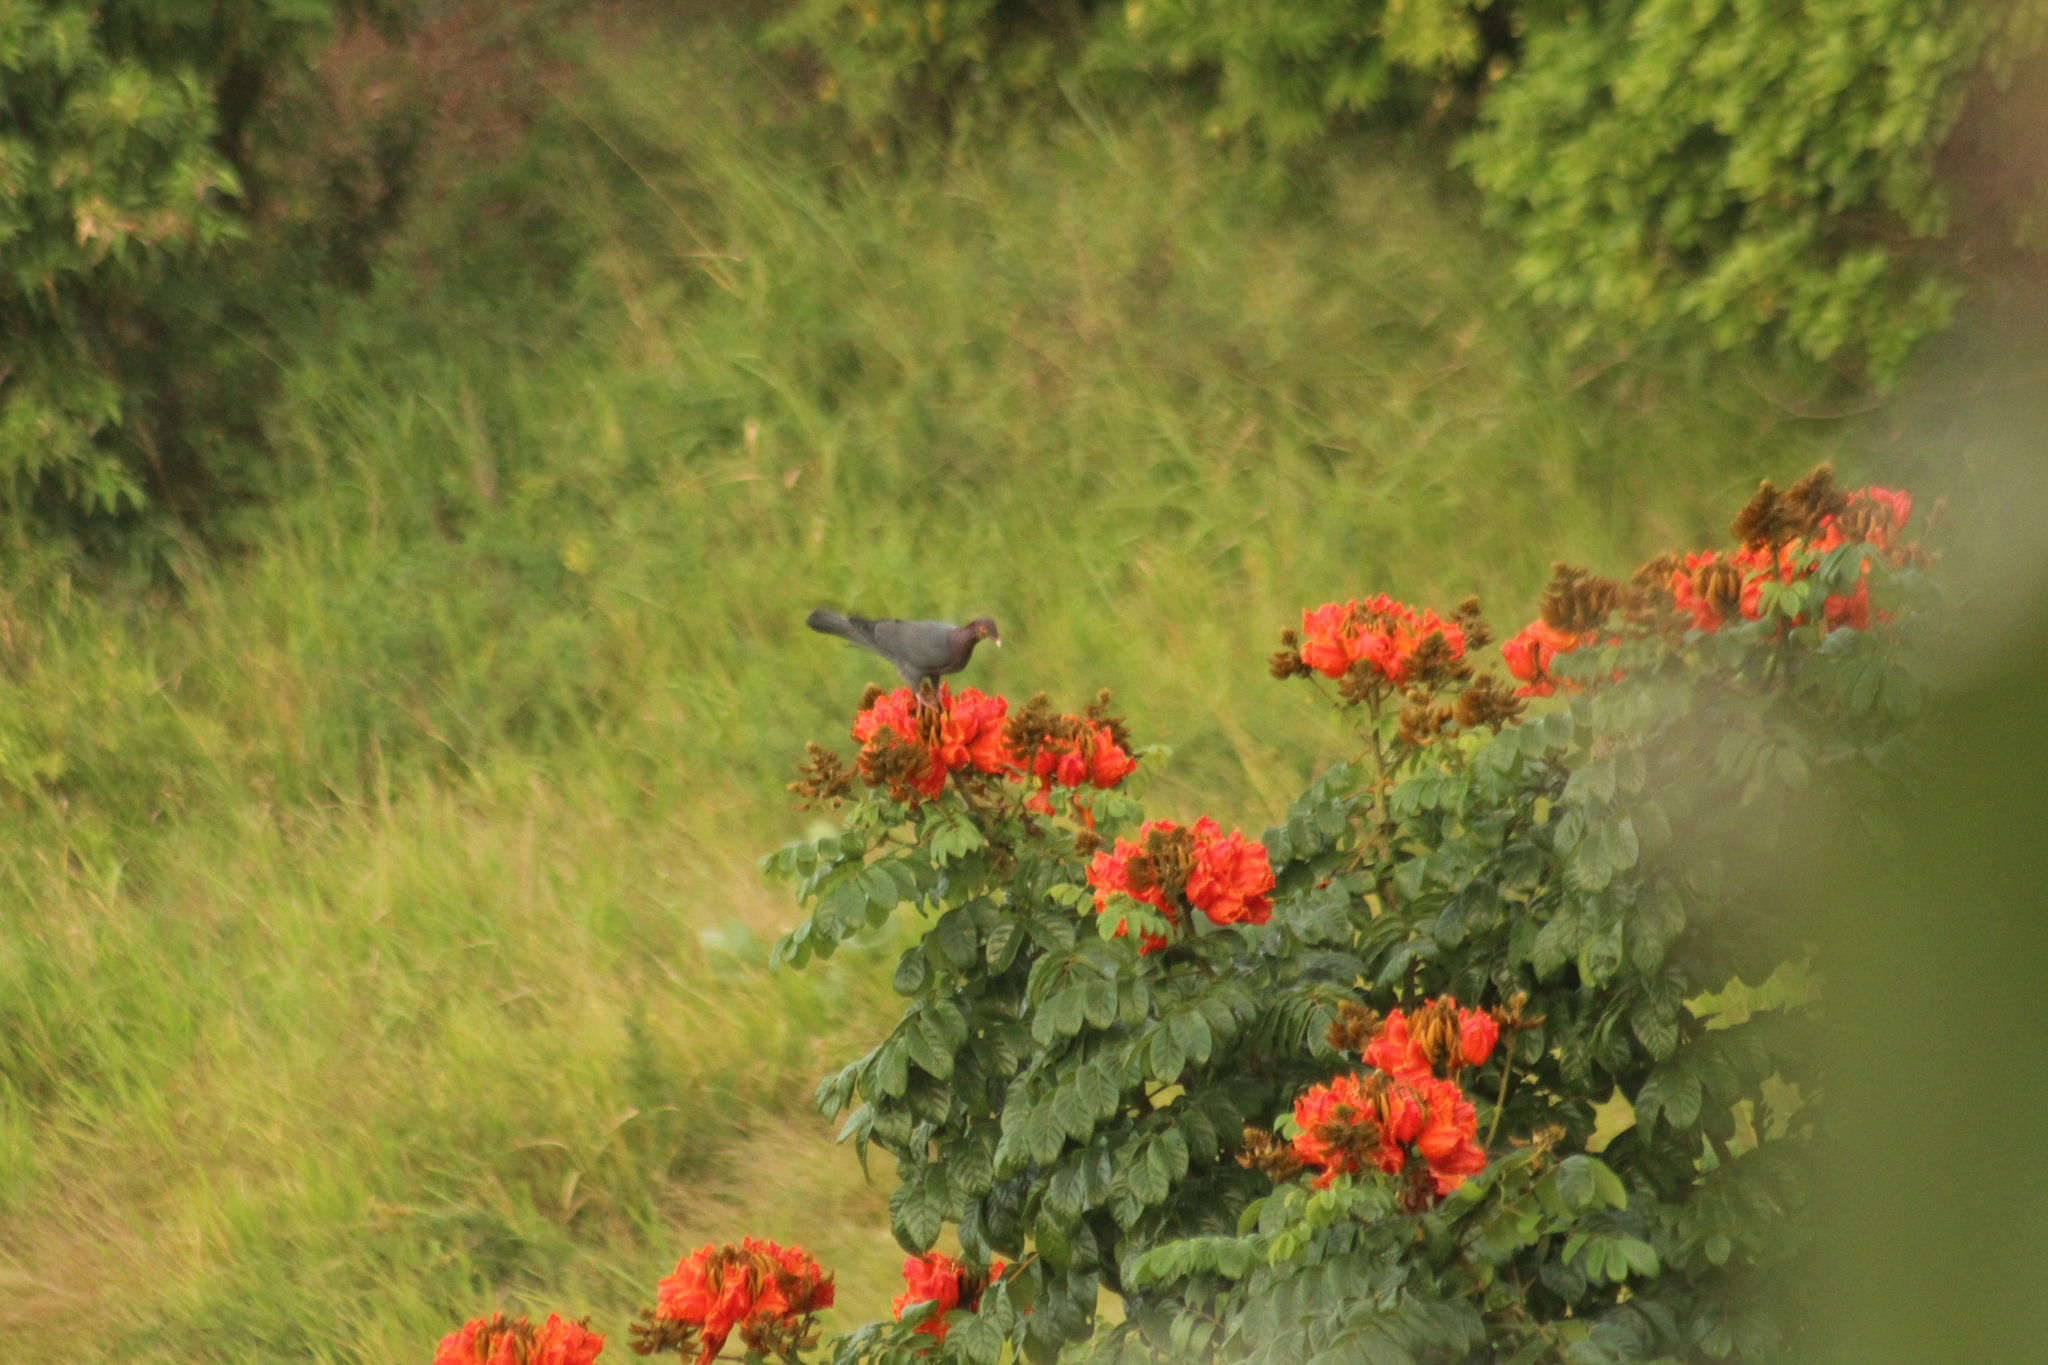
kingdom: Animalia
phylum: Chordata
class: Aves
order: Columbiformes
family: Columbidae
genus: Patagioenas
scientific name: Patagioenas squamosa
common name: Scaly-naped pigeon
